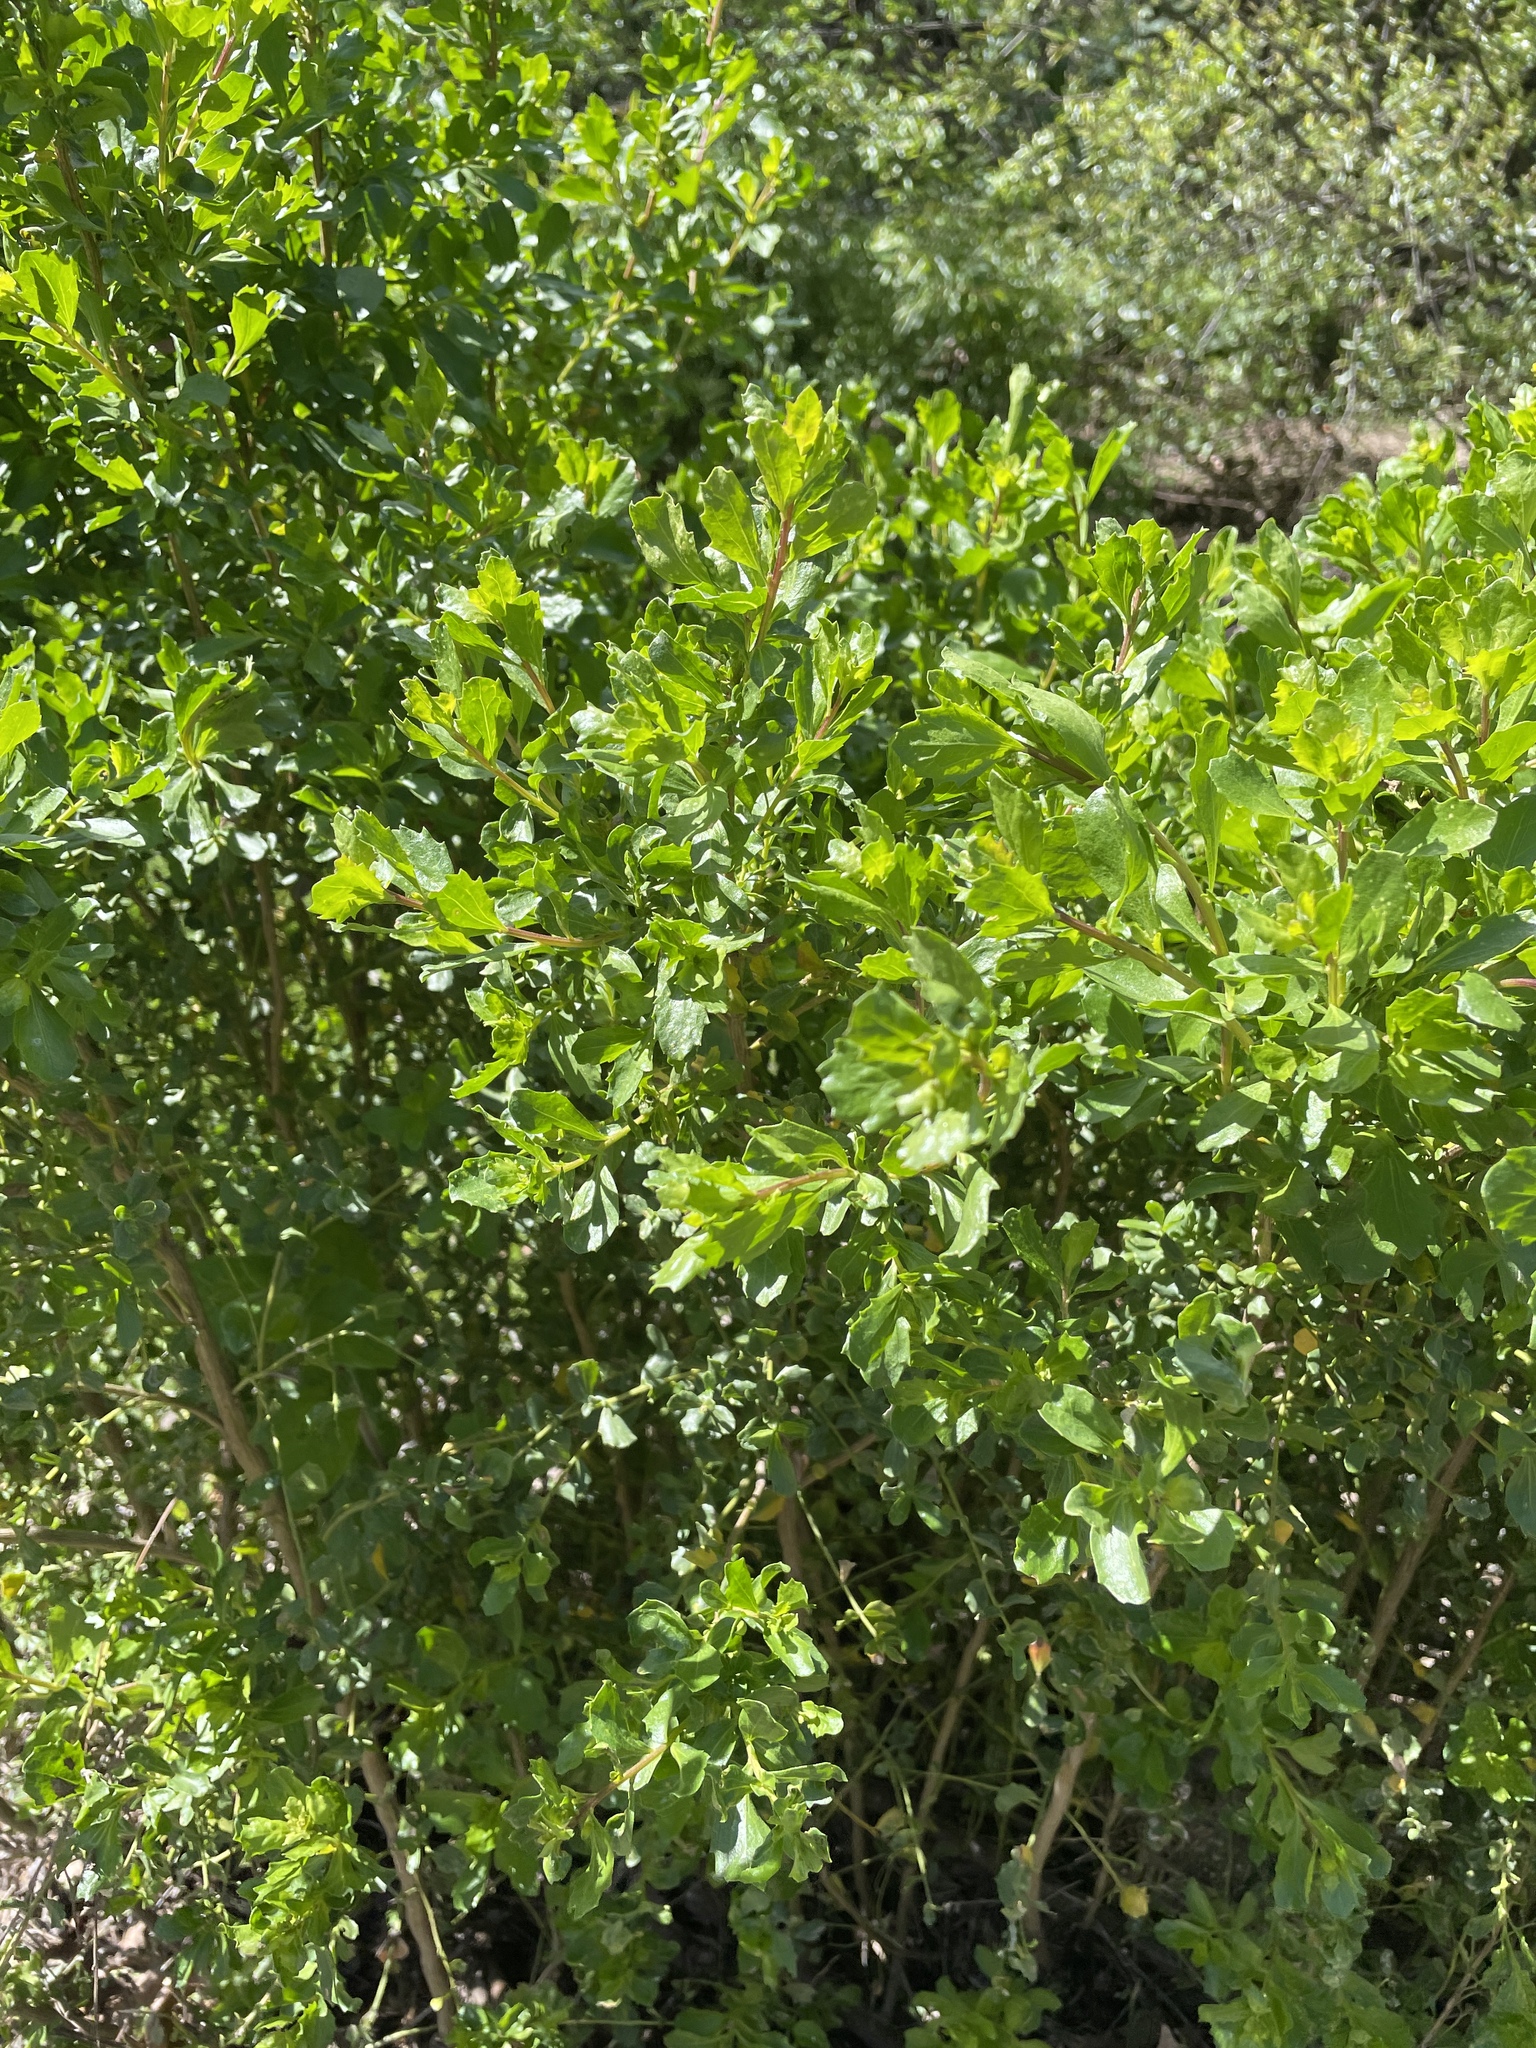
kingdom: Plantae
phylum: Tracheophyta
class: Magnoliopsida
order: Asterales
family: Asteraceae
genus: Baccharis
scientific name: Baccharis pilularis
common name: Coyotebrush
